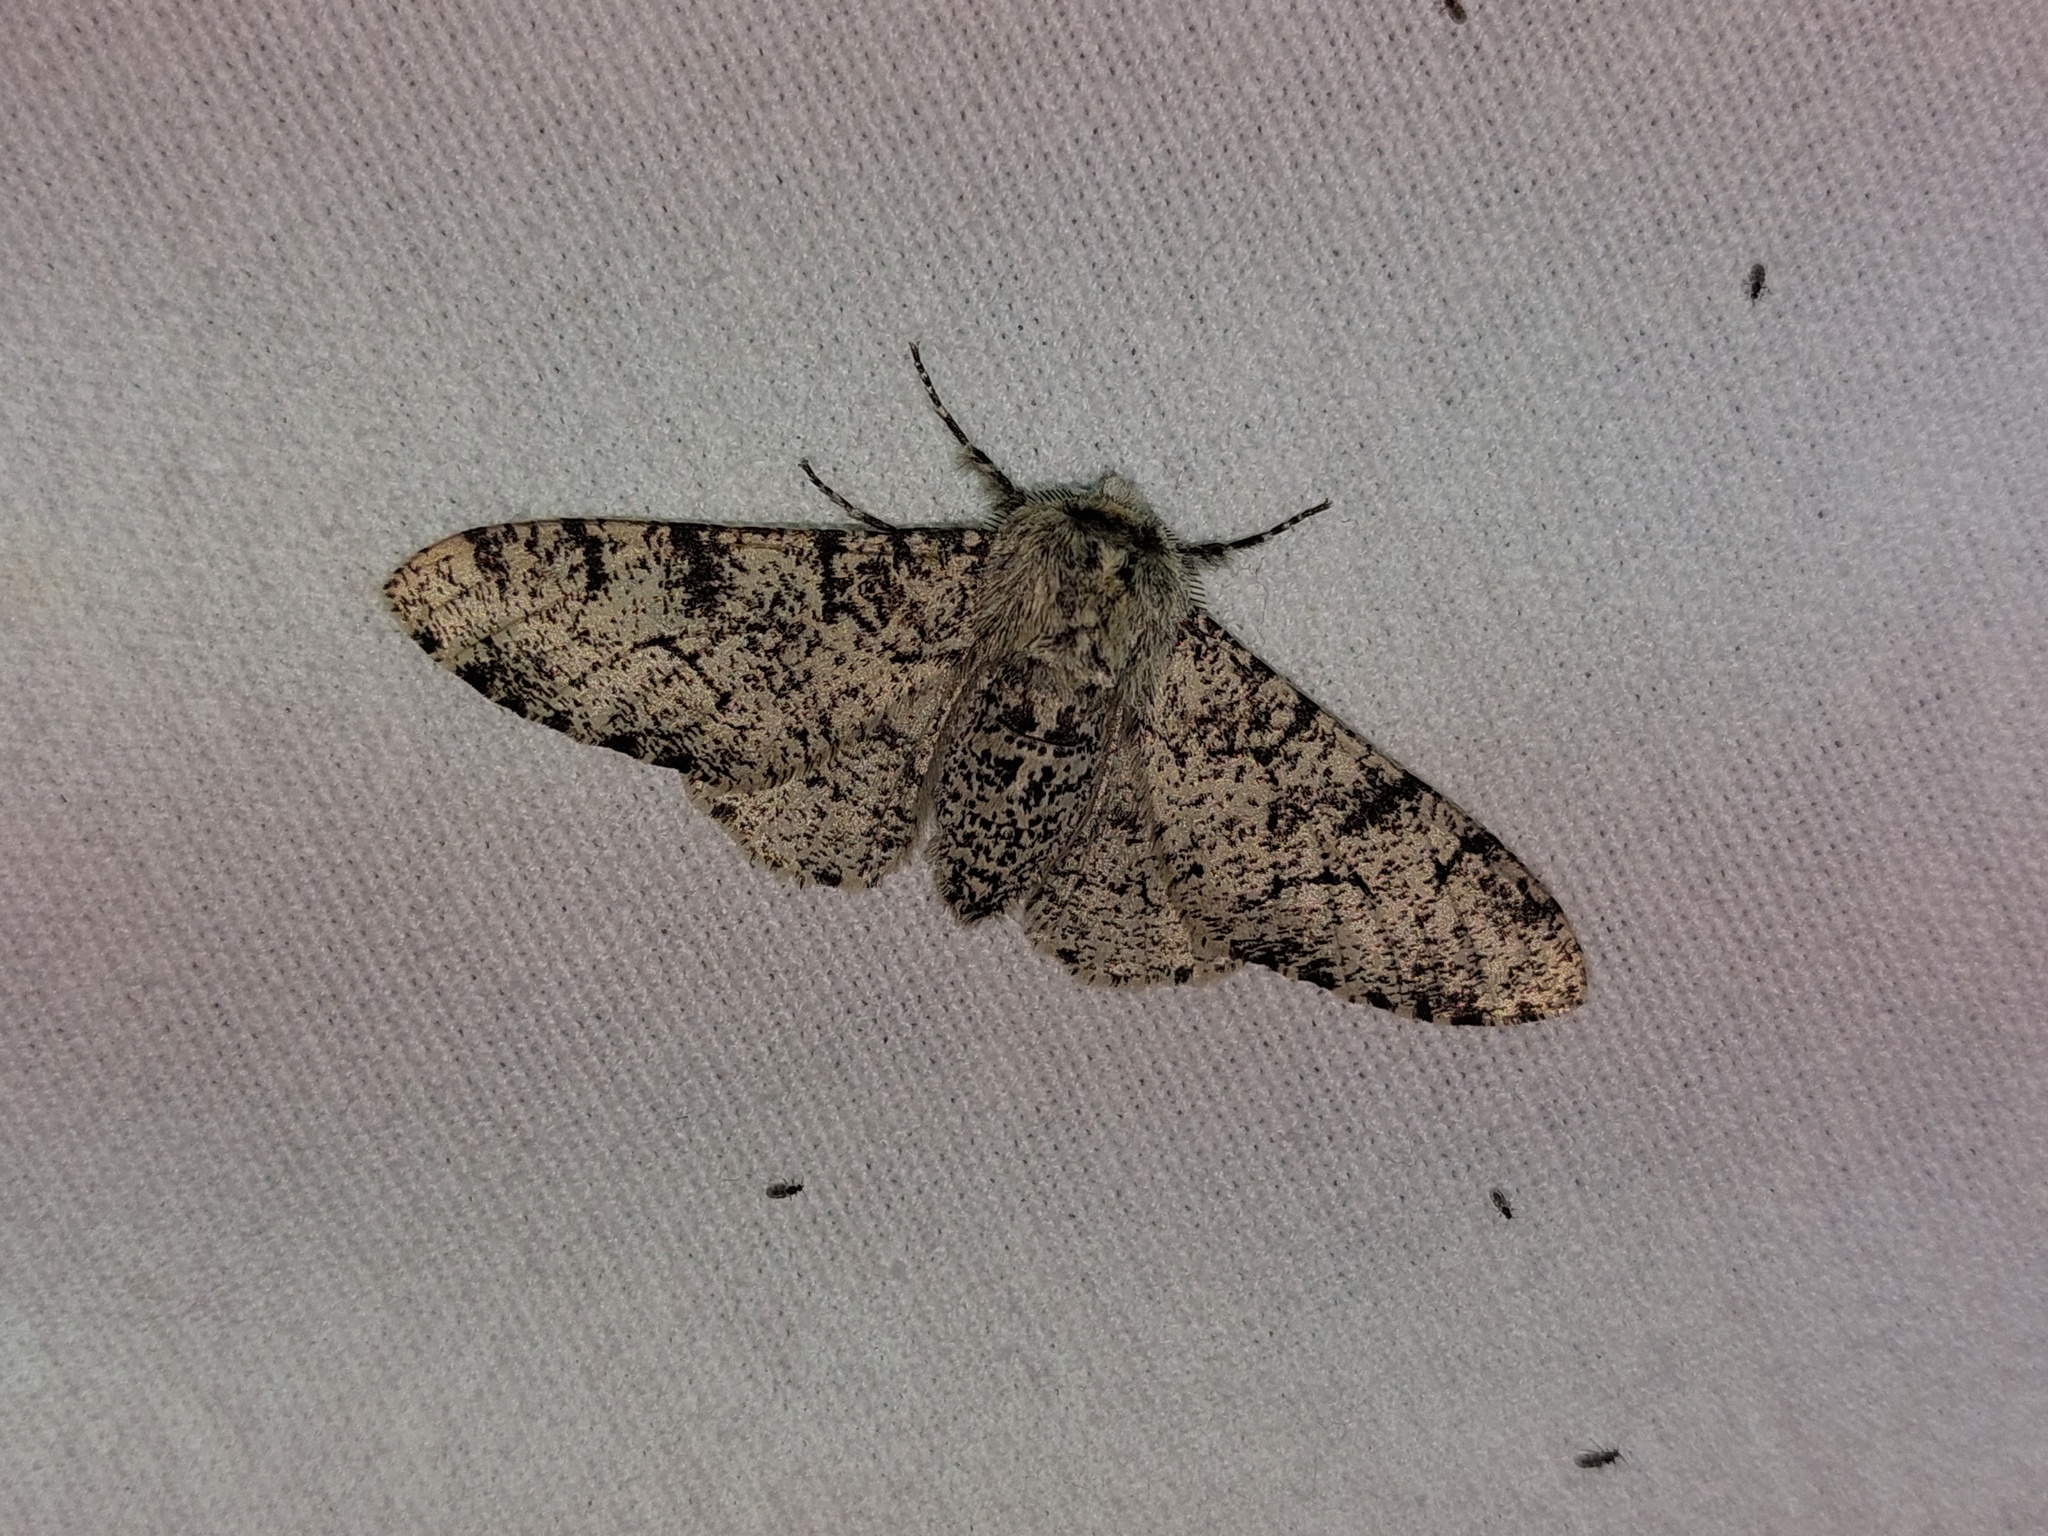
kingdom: Animalia
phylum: Arthropoda
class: Insecta
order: Lepidoptera
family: Geometridae
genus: Biston
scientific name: Biston betularia
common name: Peppered moth
